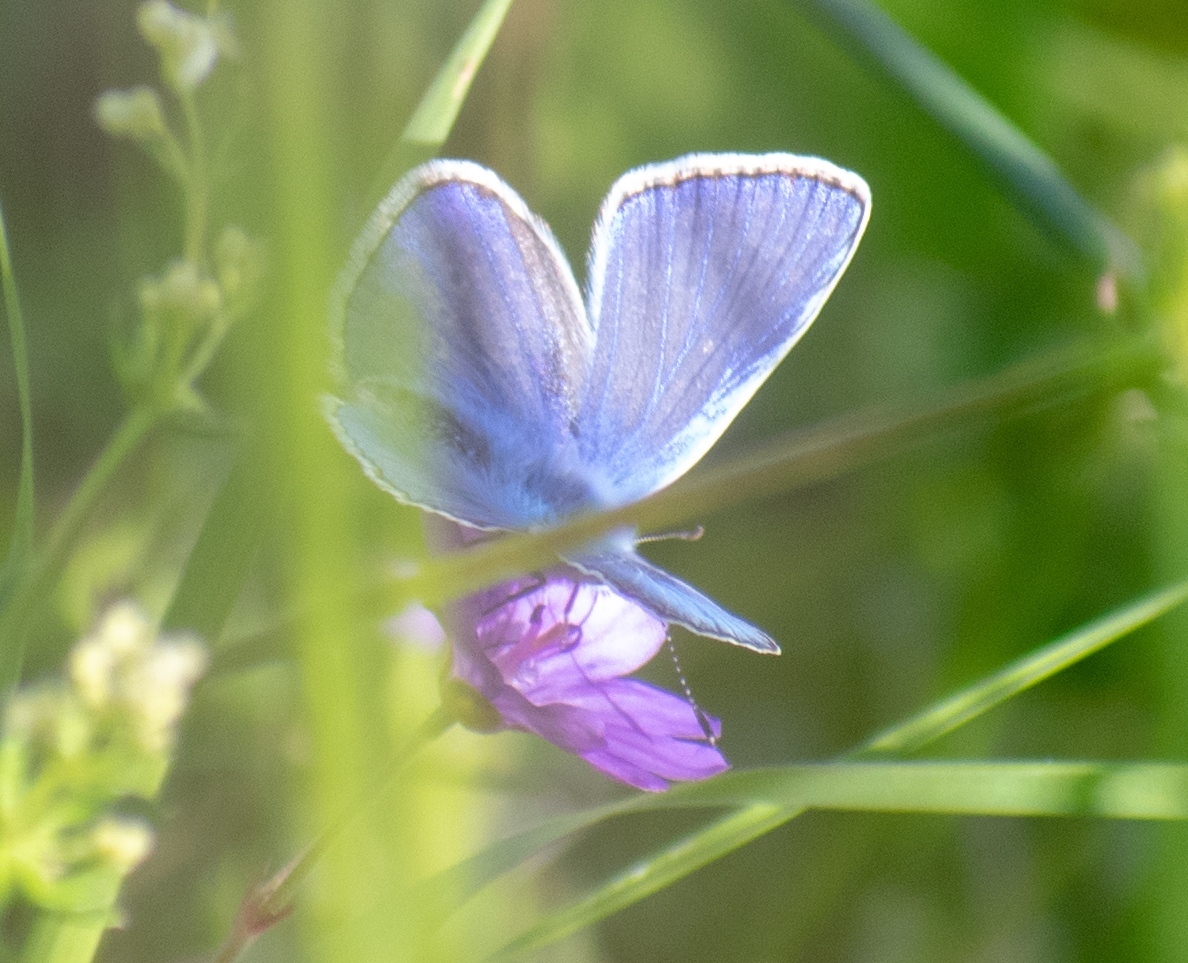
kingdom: Animalia
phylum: Arthropoda
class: Insecta
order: Lepidoptera
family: Lycaenidae
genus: Polyommatus
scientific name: Polyommatus icarus
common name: Common blue
